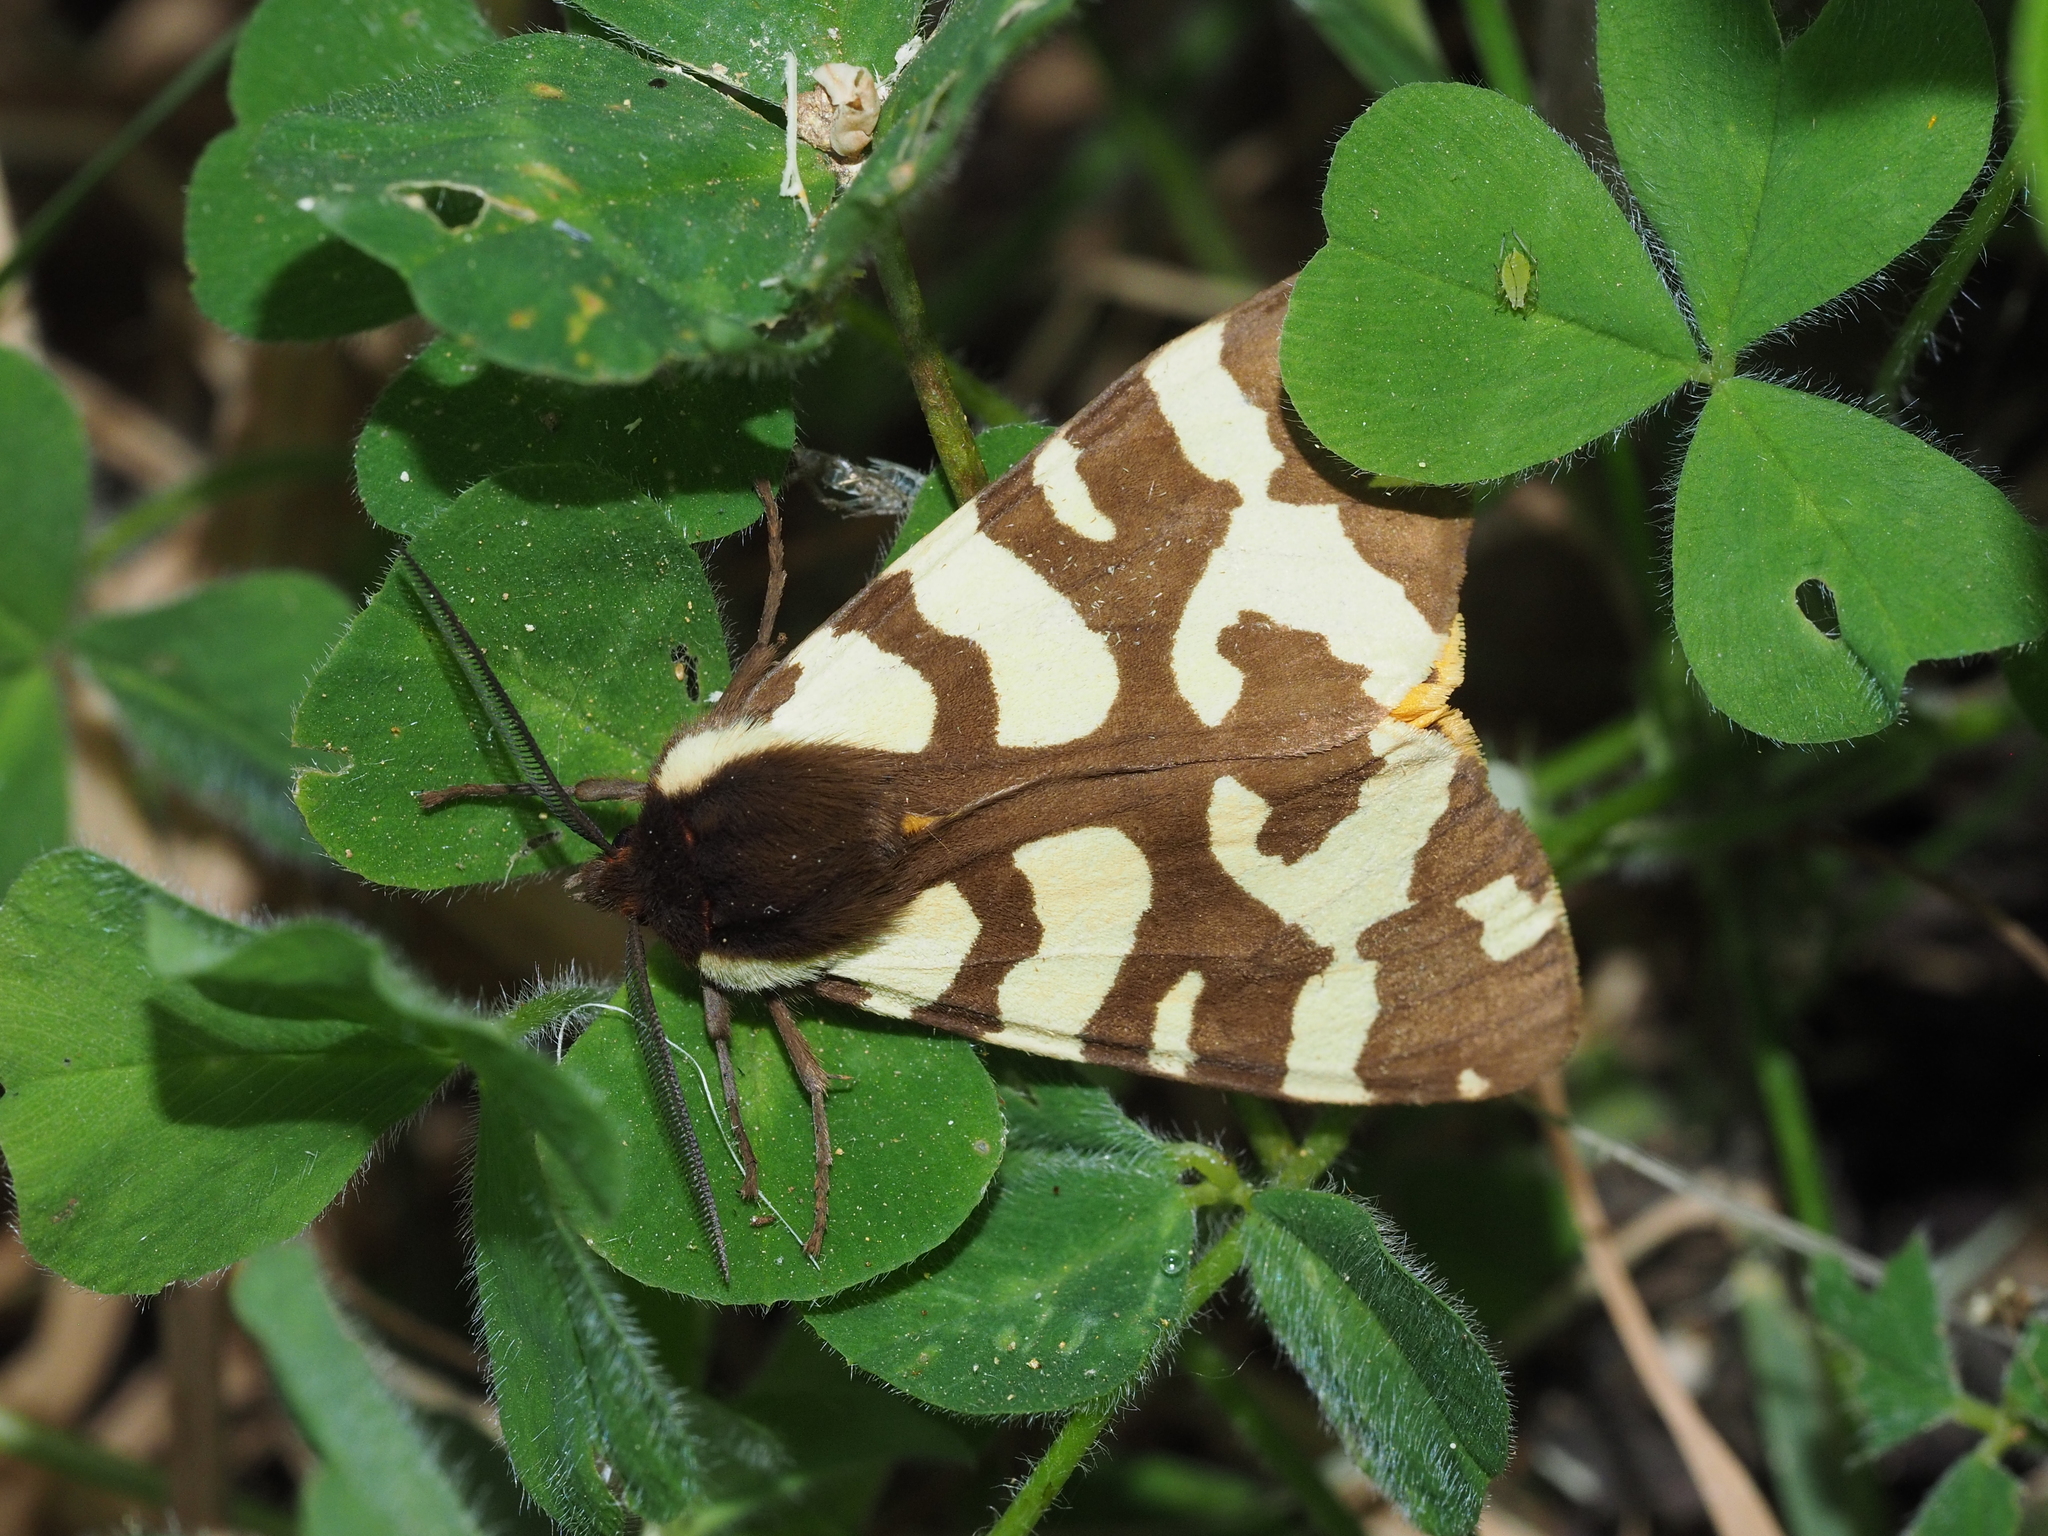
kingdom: Animalia
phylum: Arthropoda
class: Insecta
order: Lepidoptera
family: Erebidae
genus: Epicallia
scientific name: Epicallia villica
